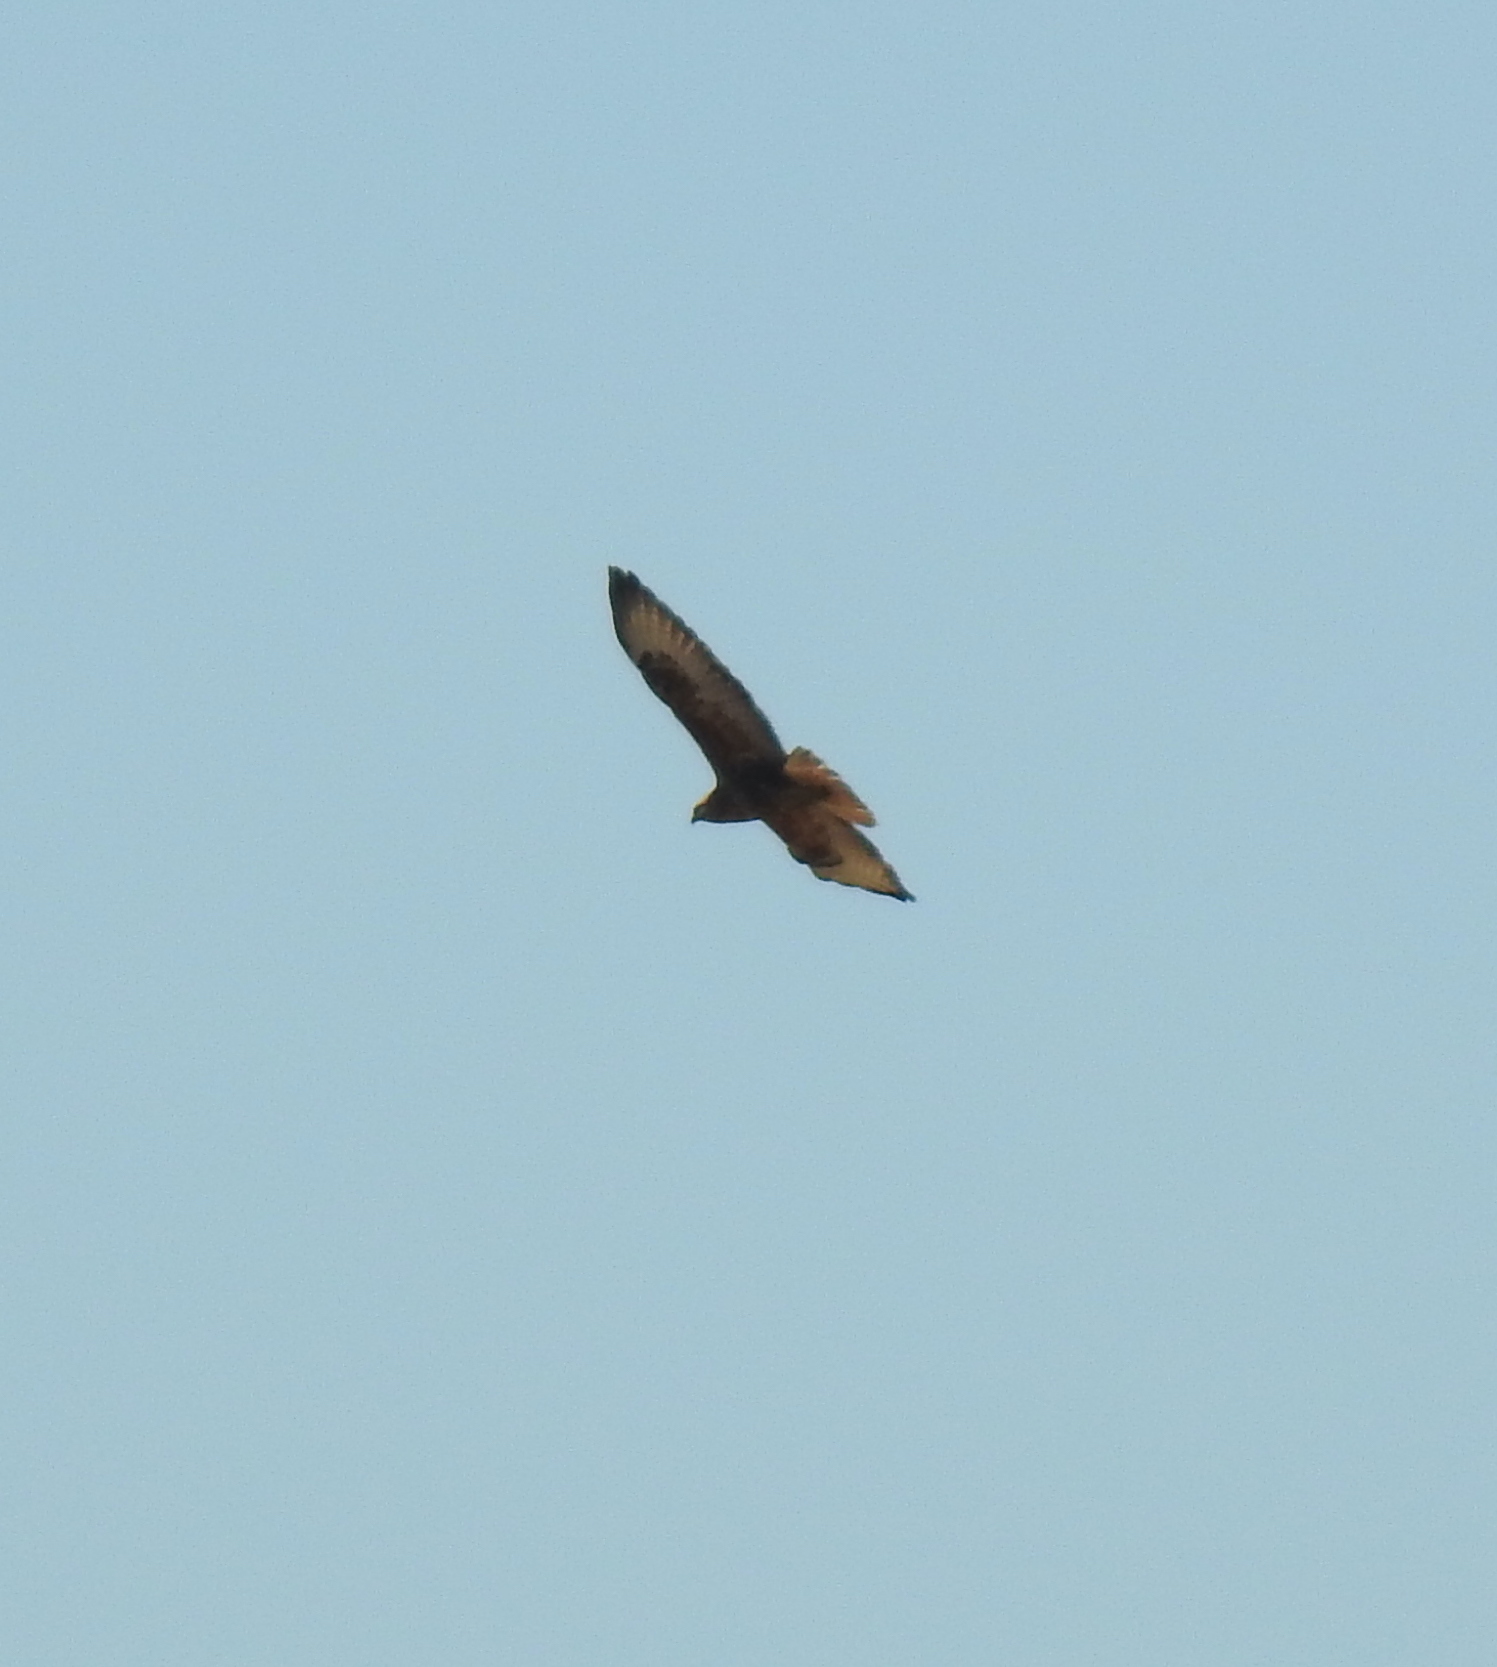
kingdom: Animalia
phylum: Chordata
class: Aves
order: Accipitriformes
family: Accipitridae
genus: Buteo
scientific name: Buteo buteo
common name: Common buzzard
